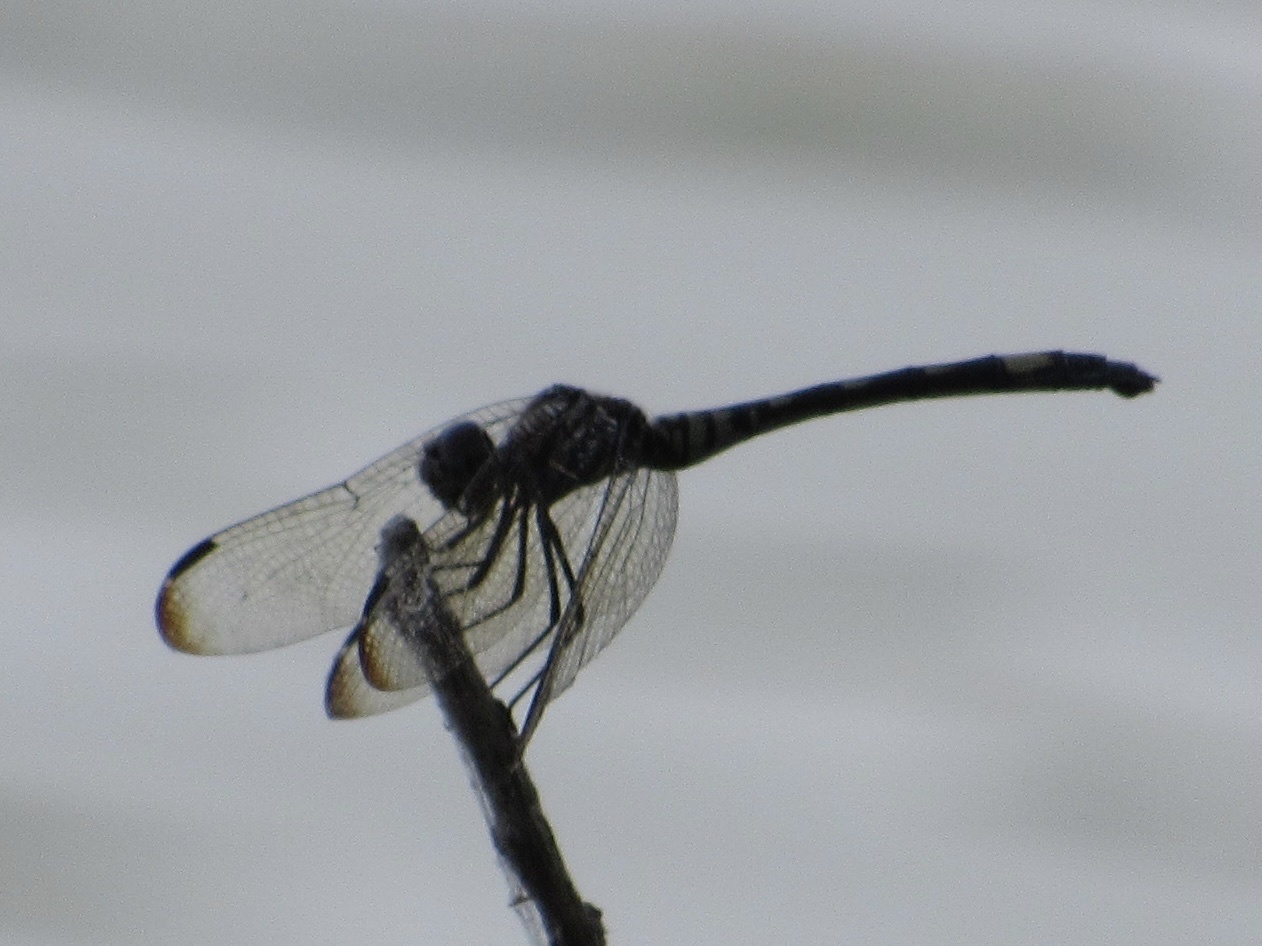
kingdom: Animalia
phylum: Arthropoda
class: Insecta
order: Odonata
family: Libellulidae
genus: Dythemis
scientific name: Dythemis velox
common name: Swift setwing
